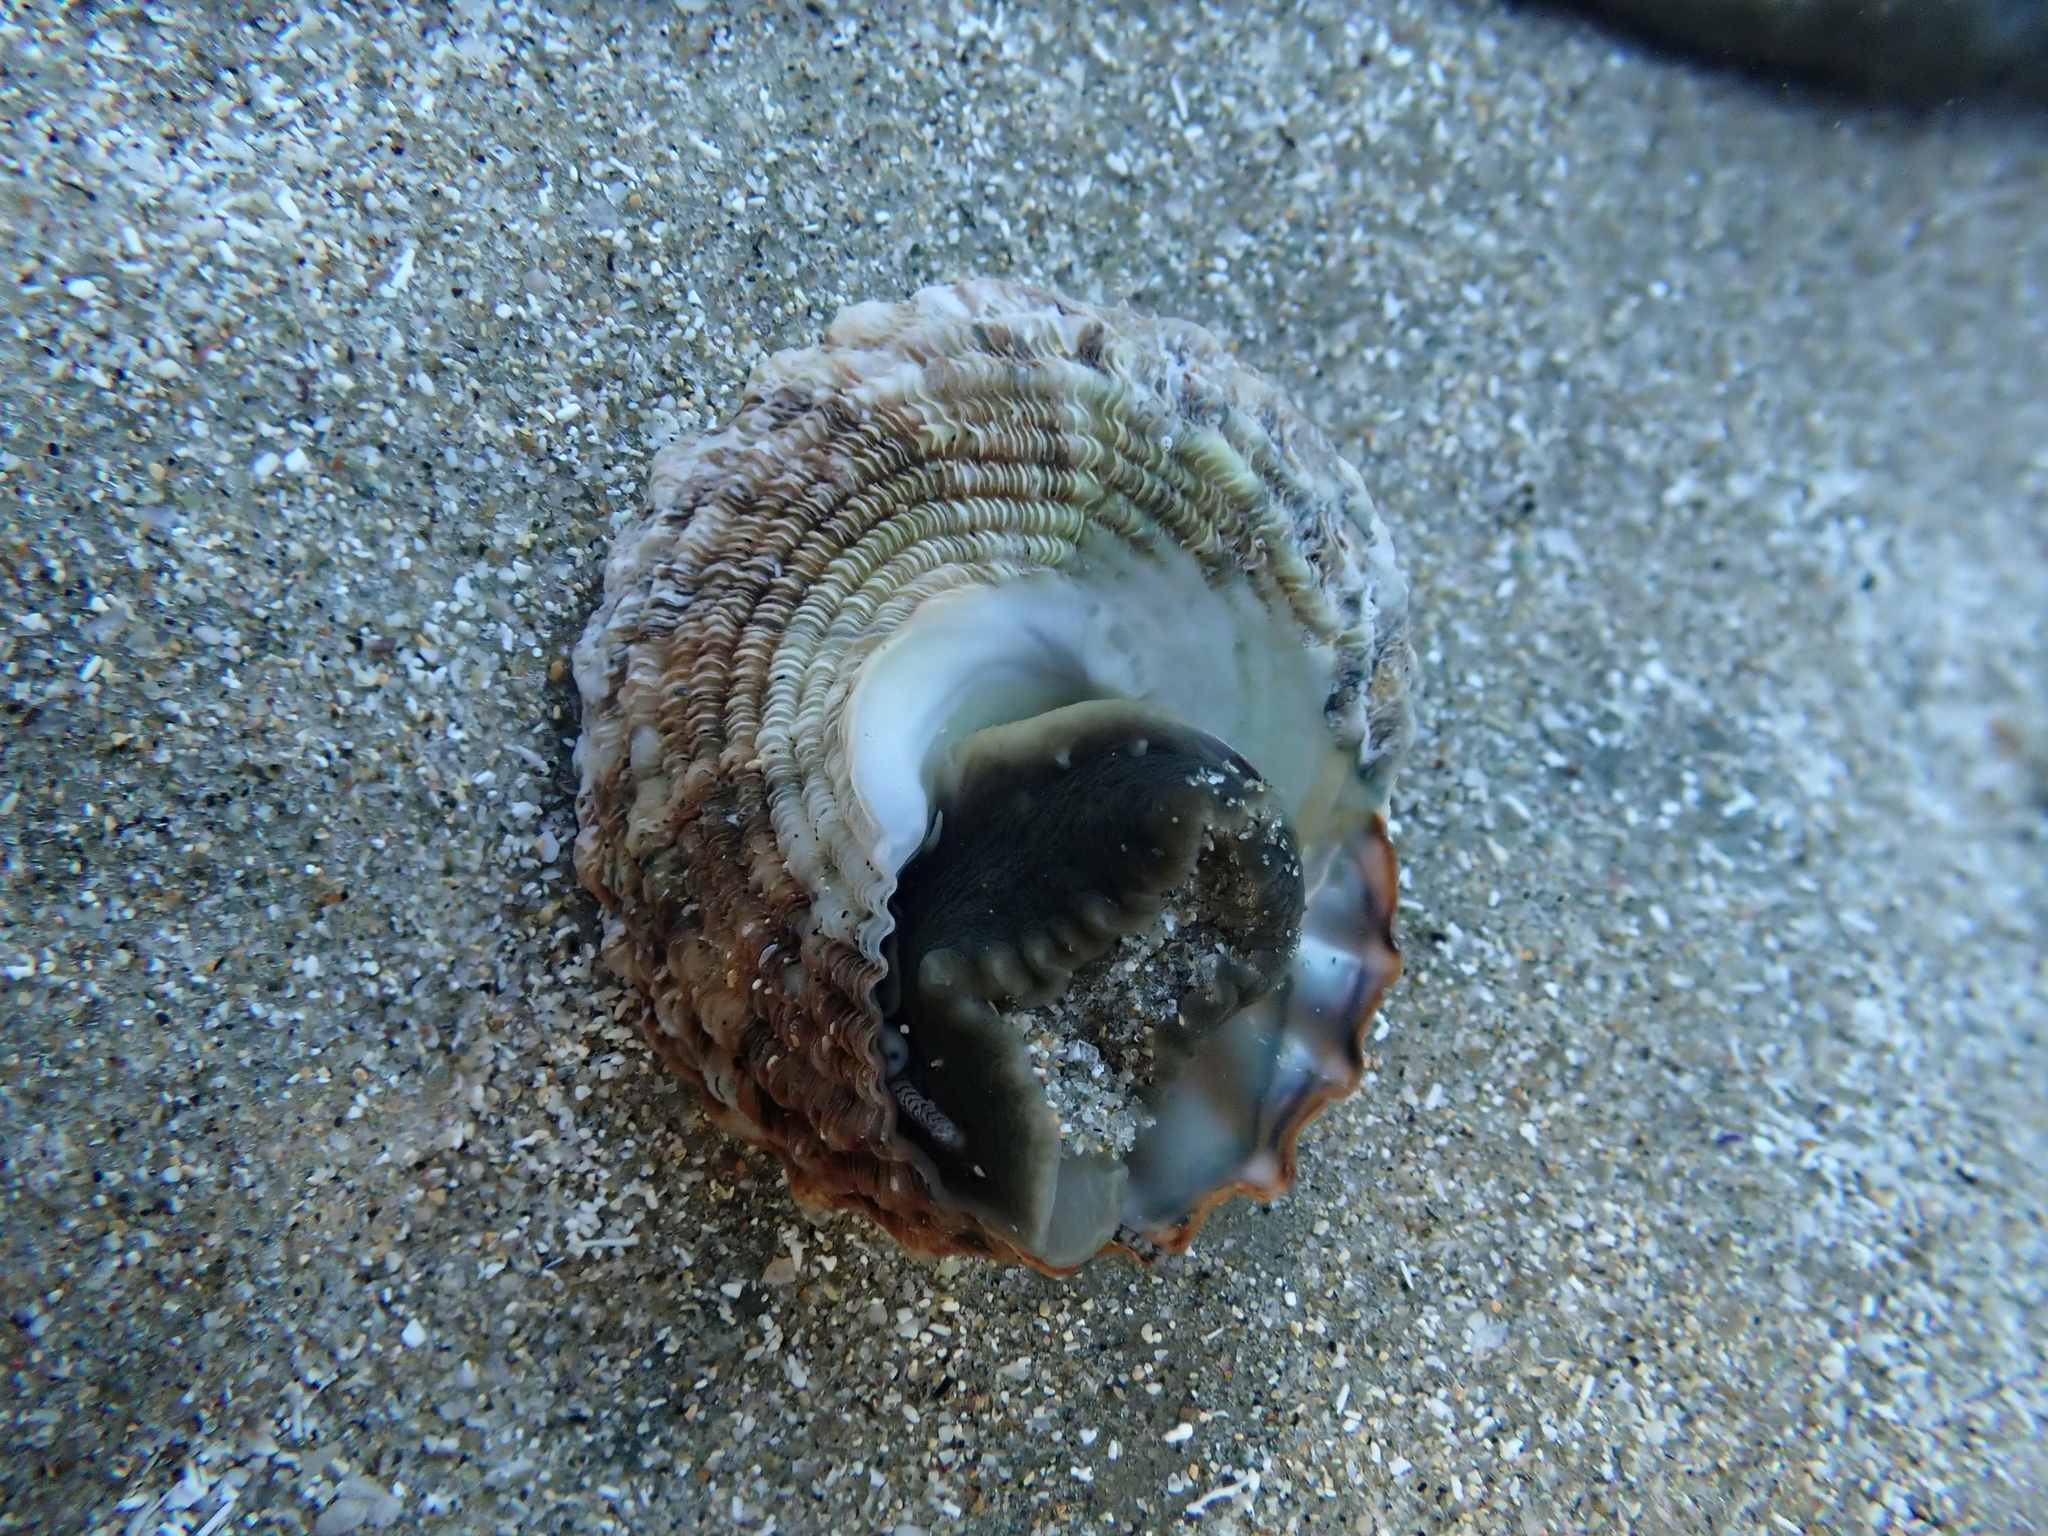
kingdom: Animalia
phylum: Mollusca
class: Gastropoda
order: Trochida
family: Turbinidae
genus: Cookia
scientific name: Cookia sulcata
